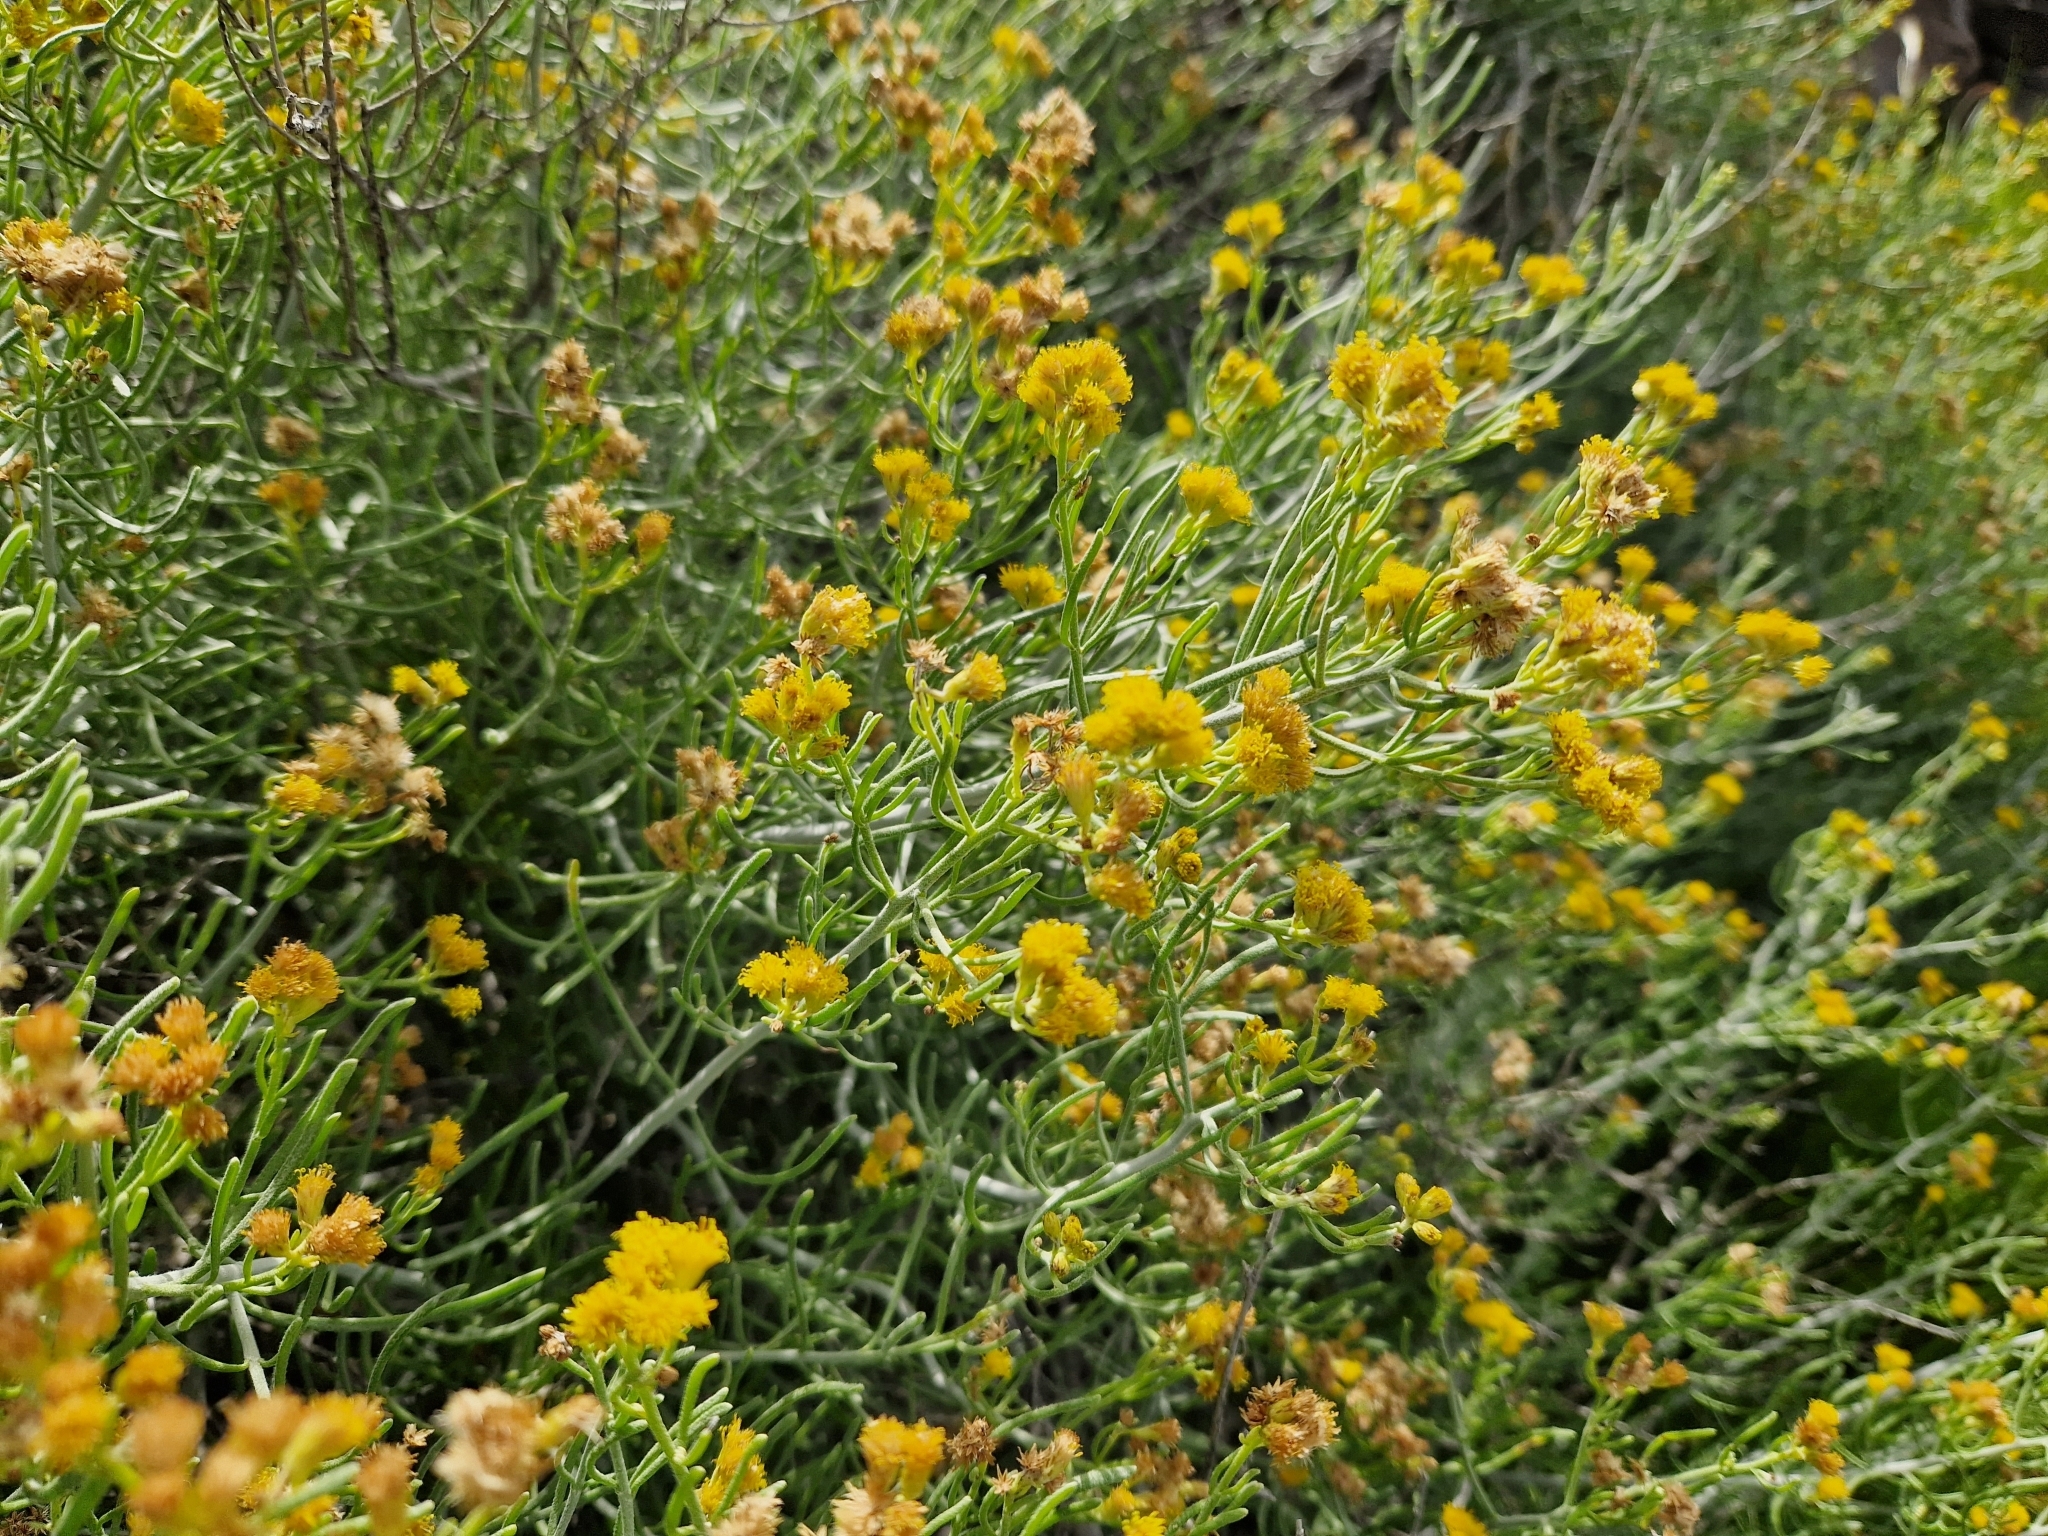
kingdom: Plantae
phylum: Tracheophyta
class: Magnoliopsida
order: Asterales
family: Asteraceae
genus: Schizogyne
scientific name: Schizogyne sericea
